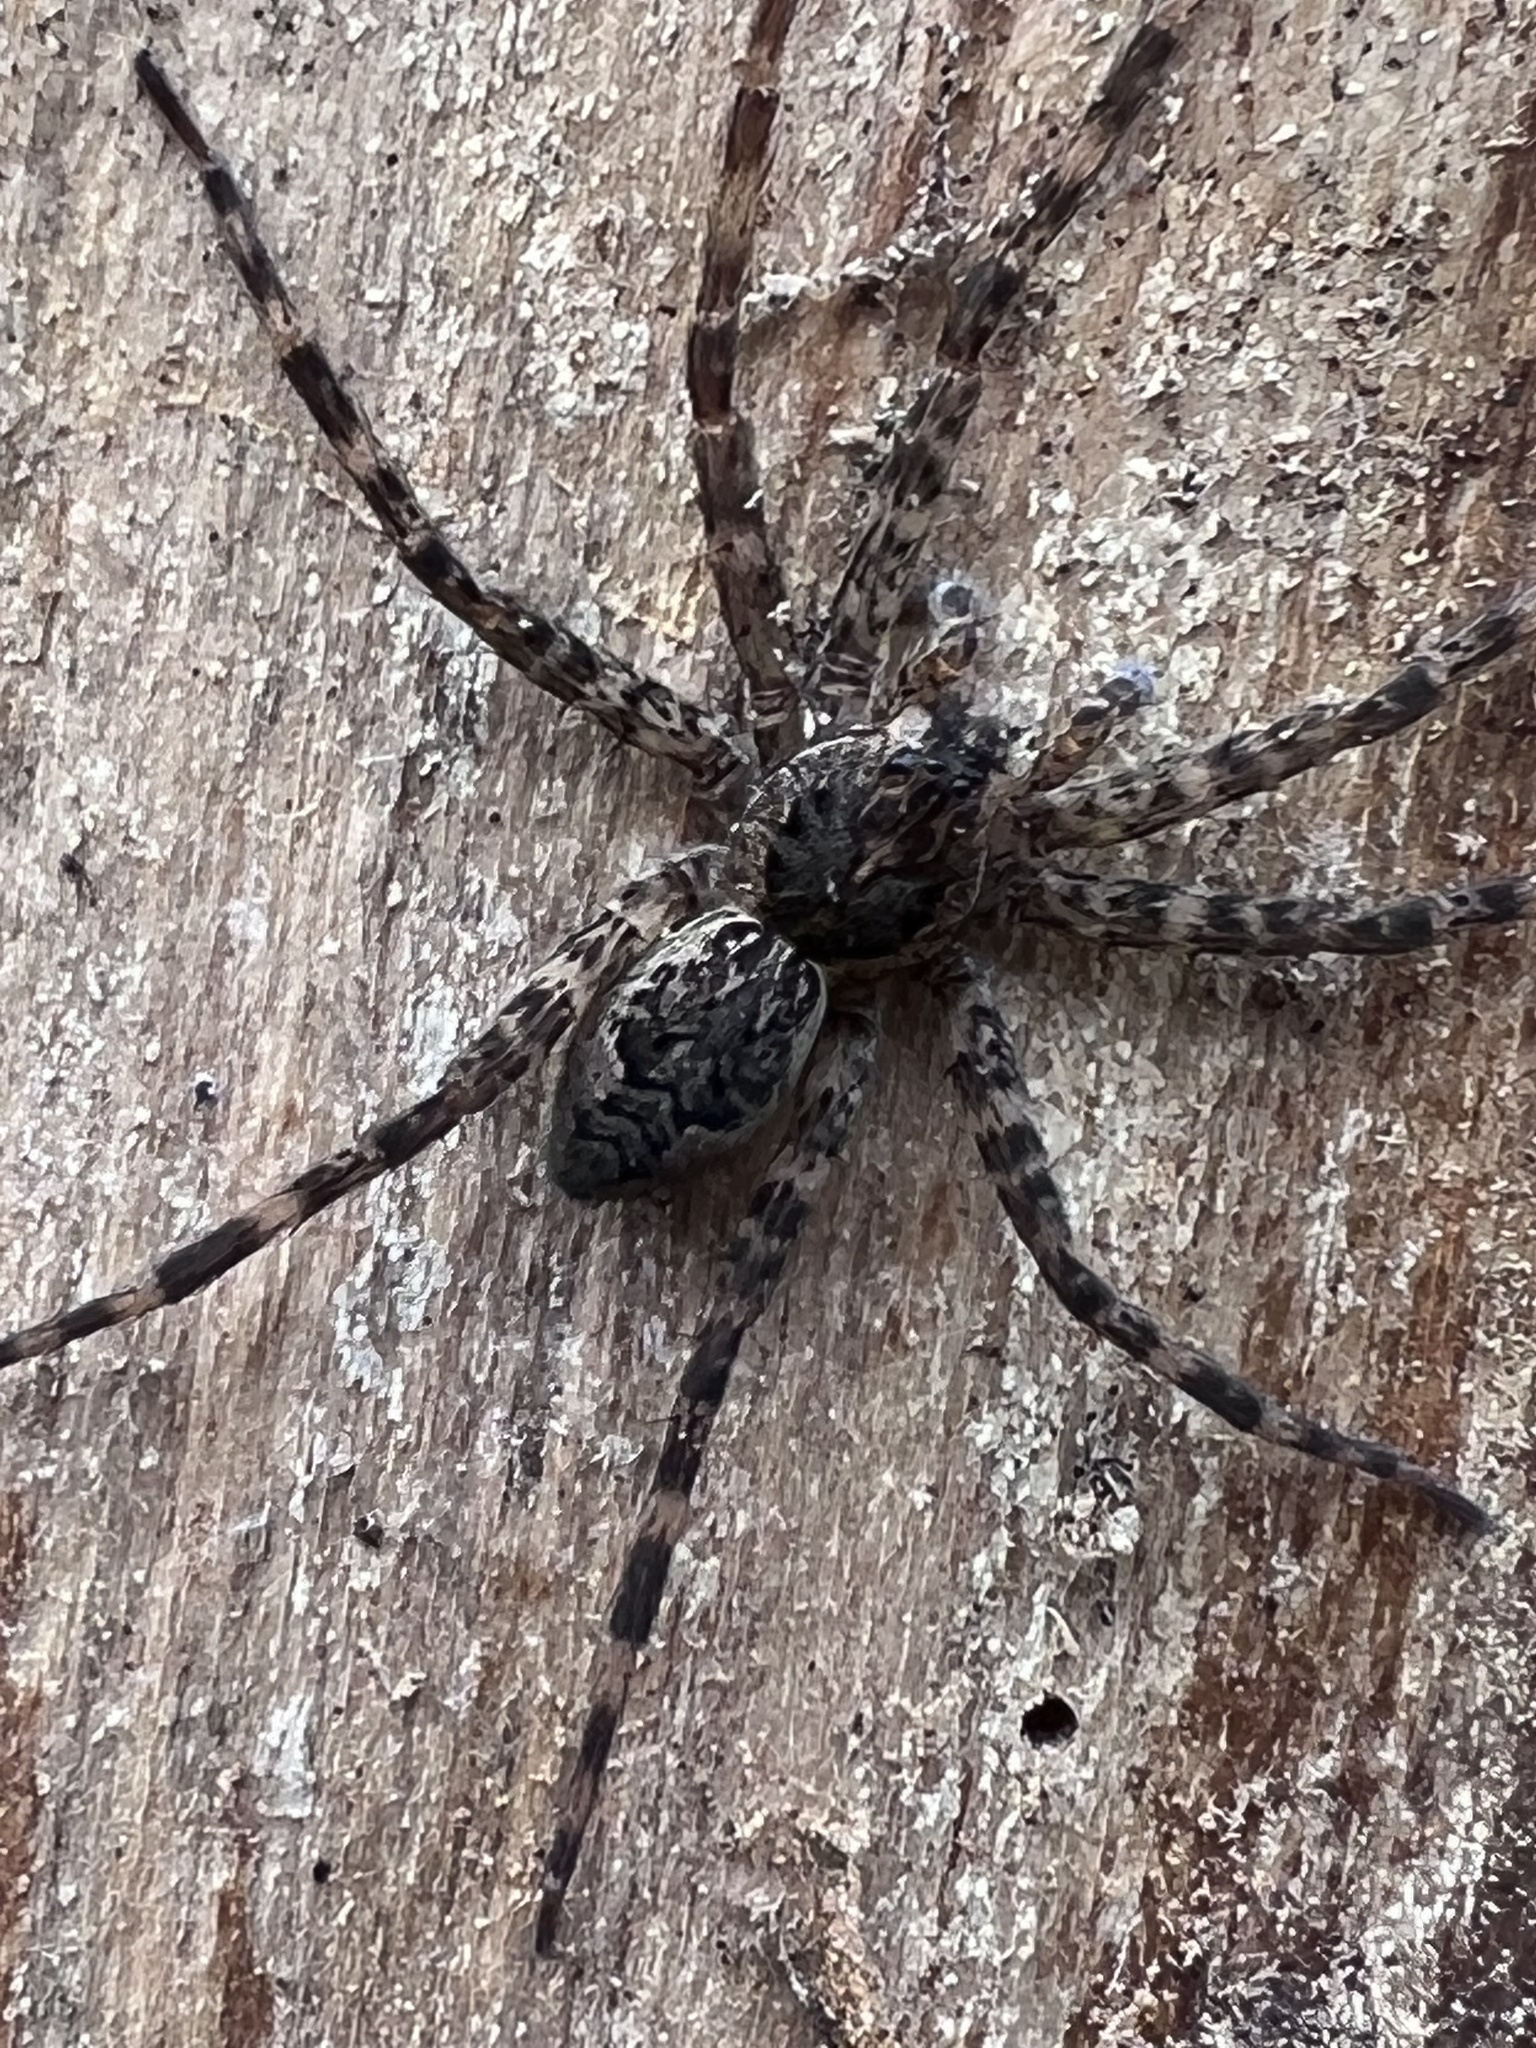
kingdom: Animalia
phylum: Arthropoda
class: Arachnida
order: Araneae
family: Pisauridae
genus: Dolomedes
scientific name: Dolomedes tenebrosus
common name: Dark fishing spider
